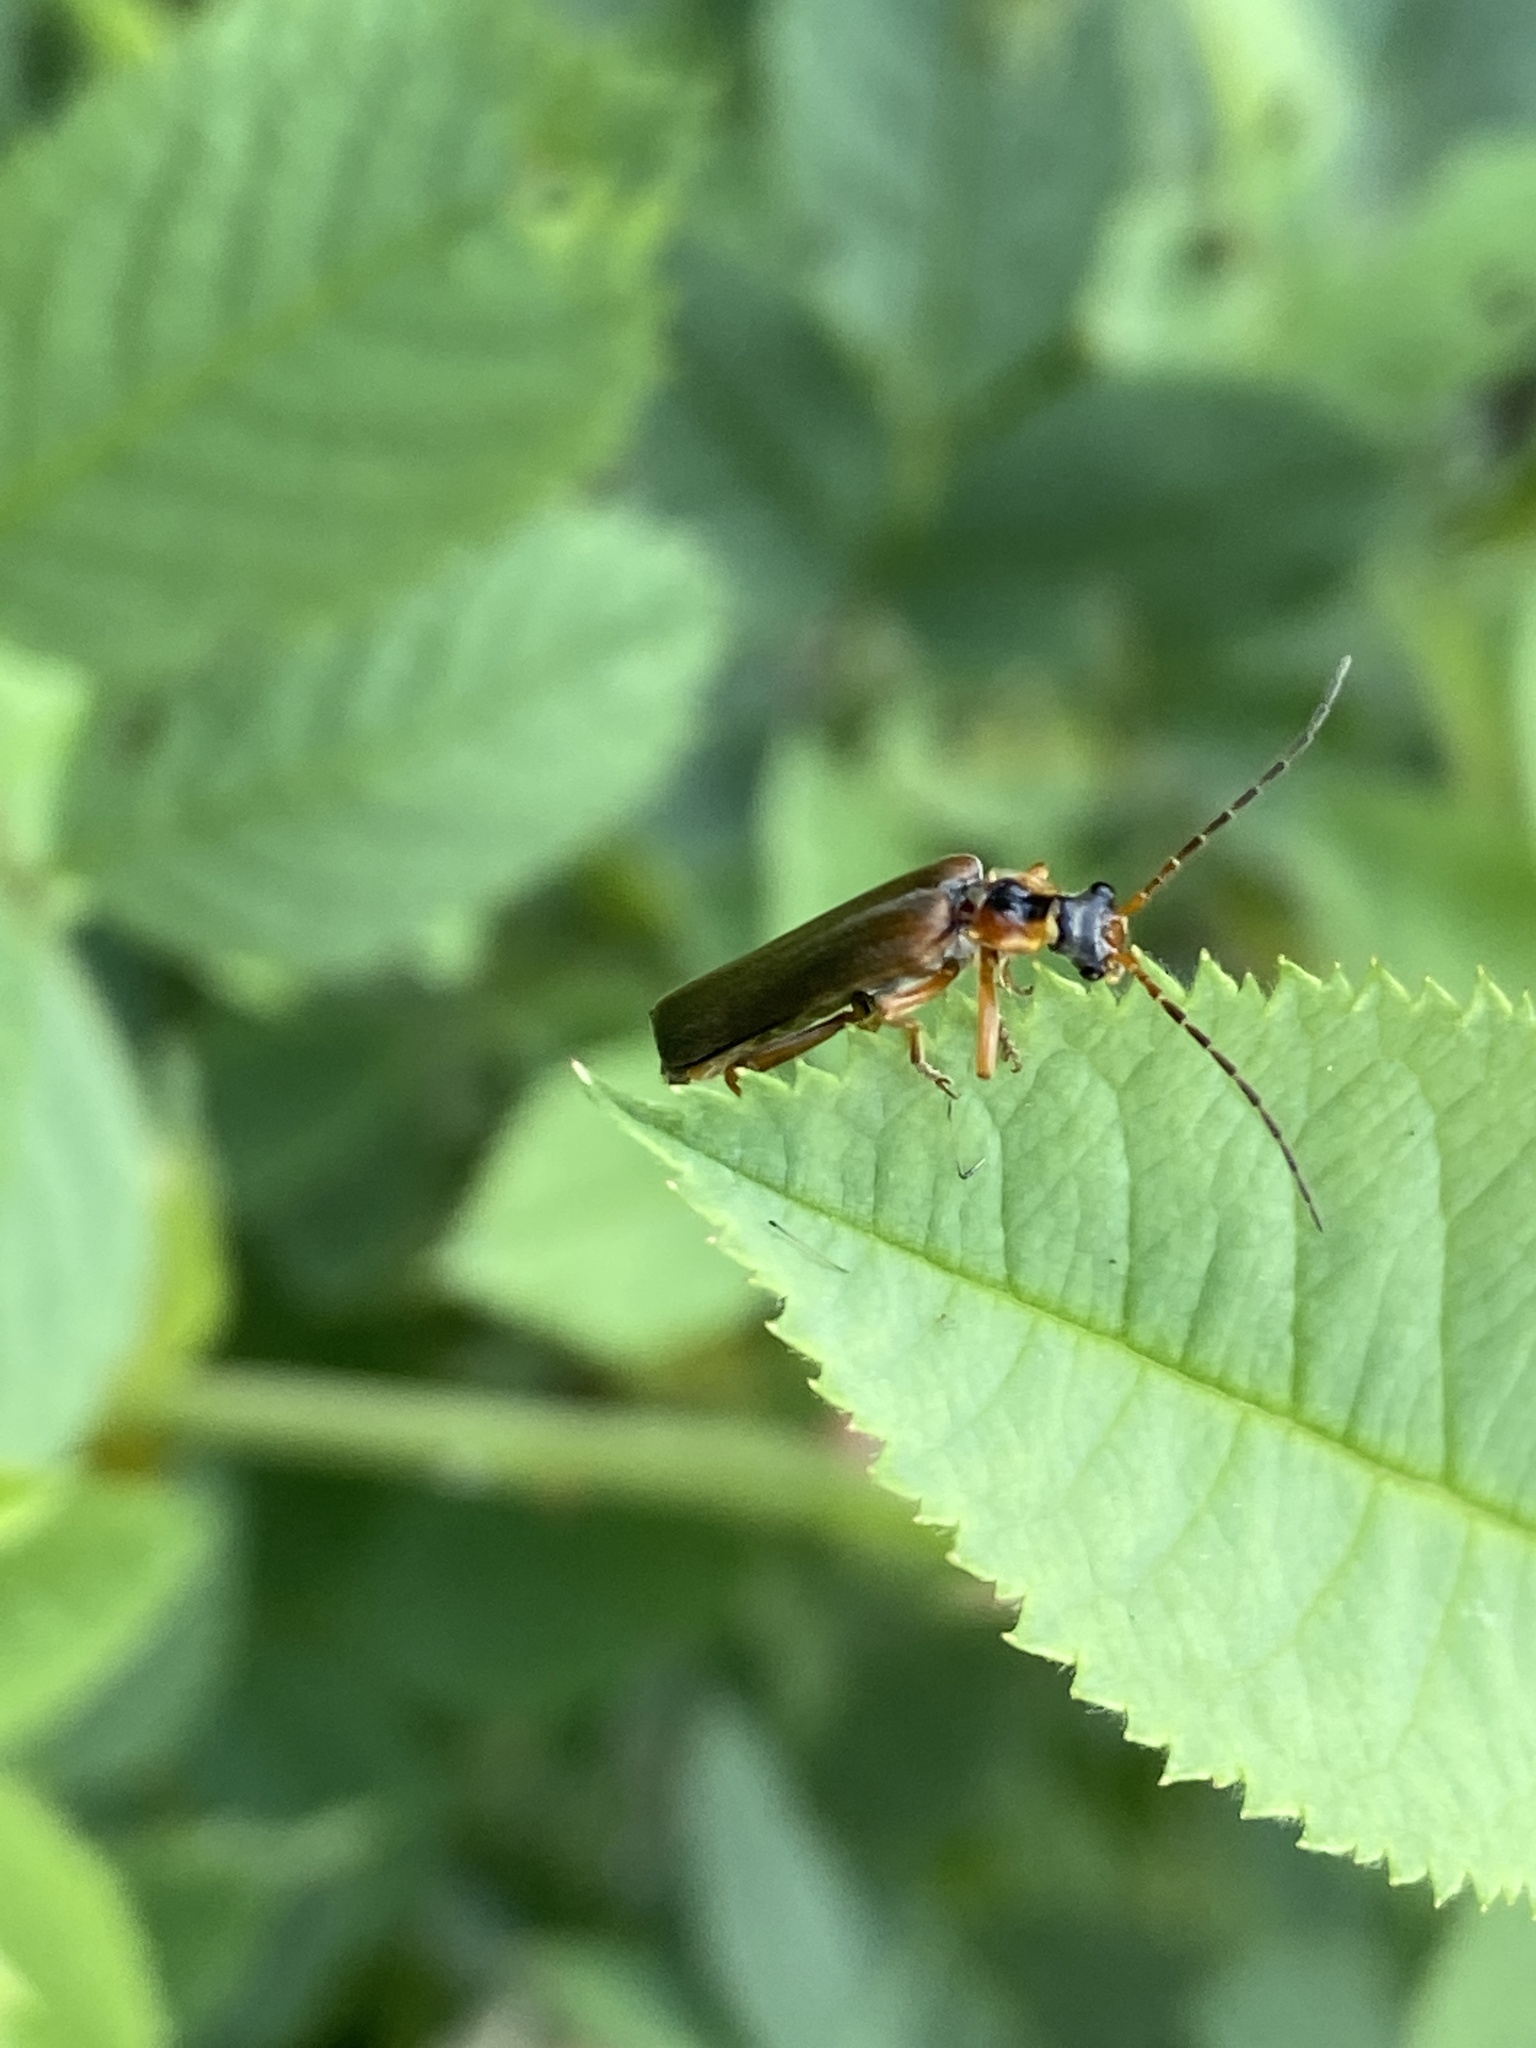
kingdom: Animalia
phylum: Arthropoda
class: Insecta
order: Coleoptera
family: Cantharidae
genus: Podabrus
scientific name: Podabrus alpinus
